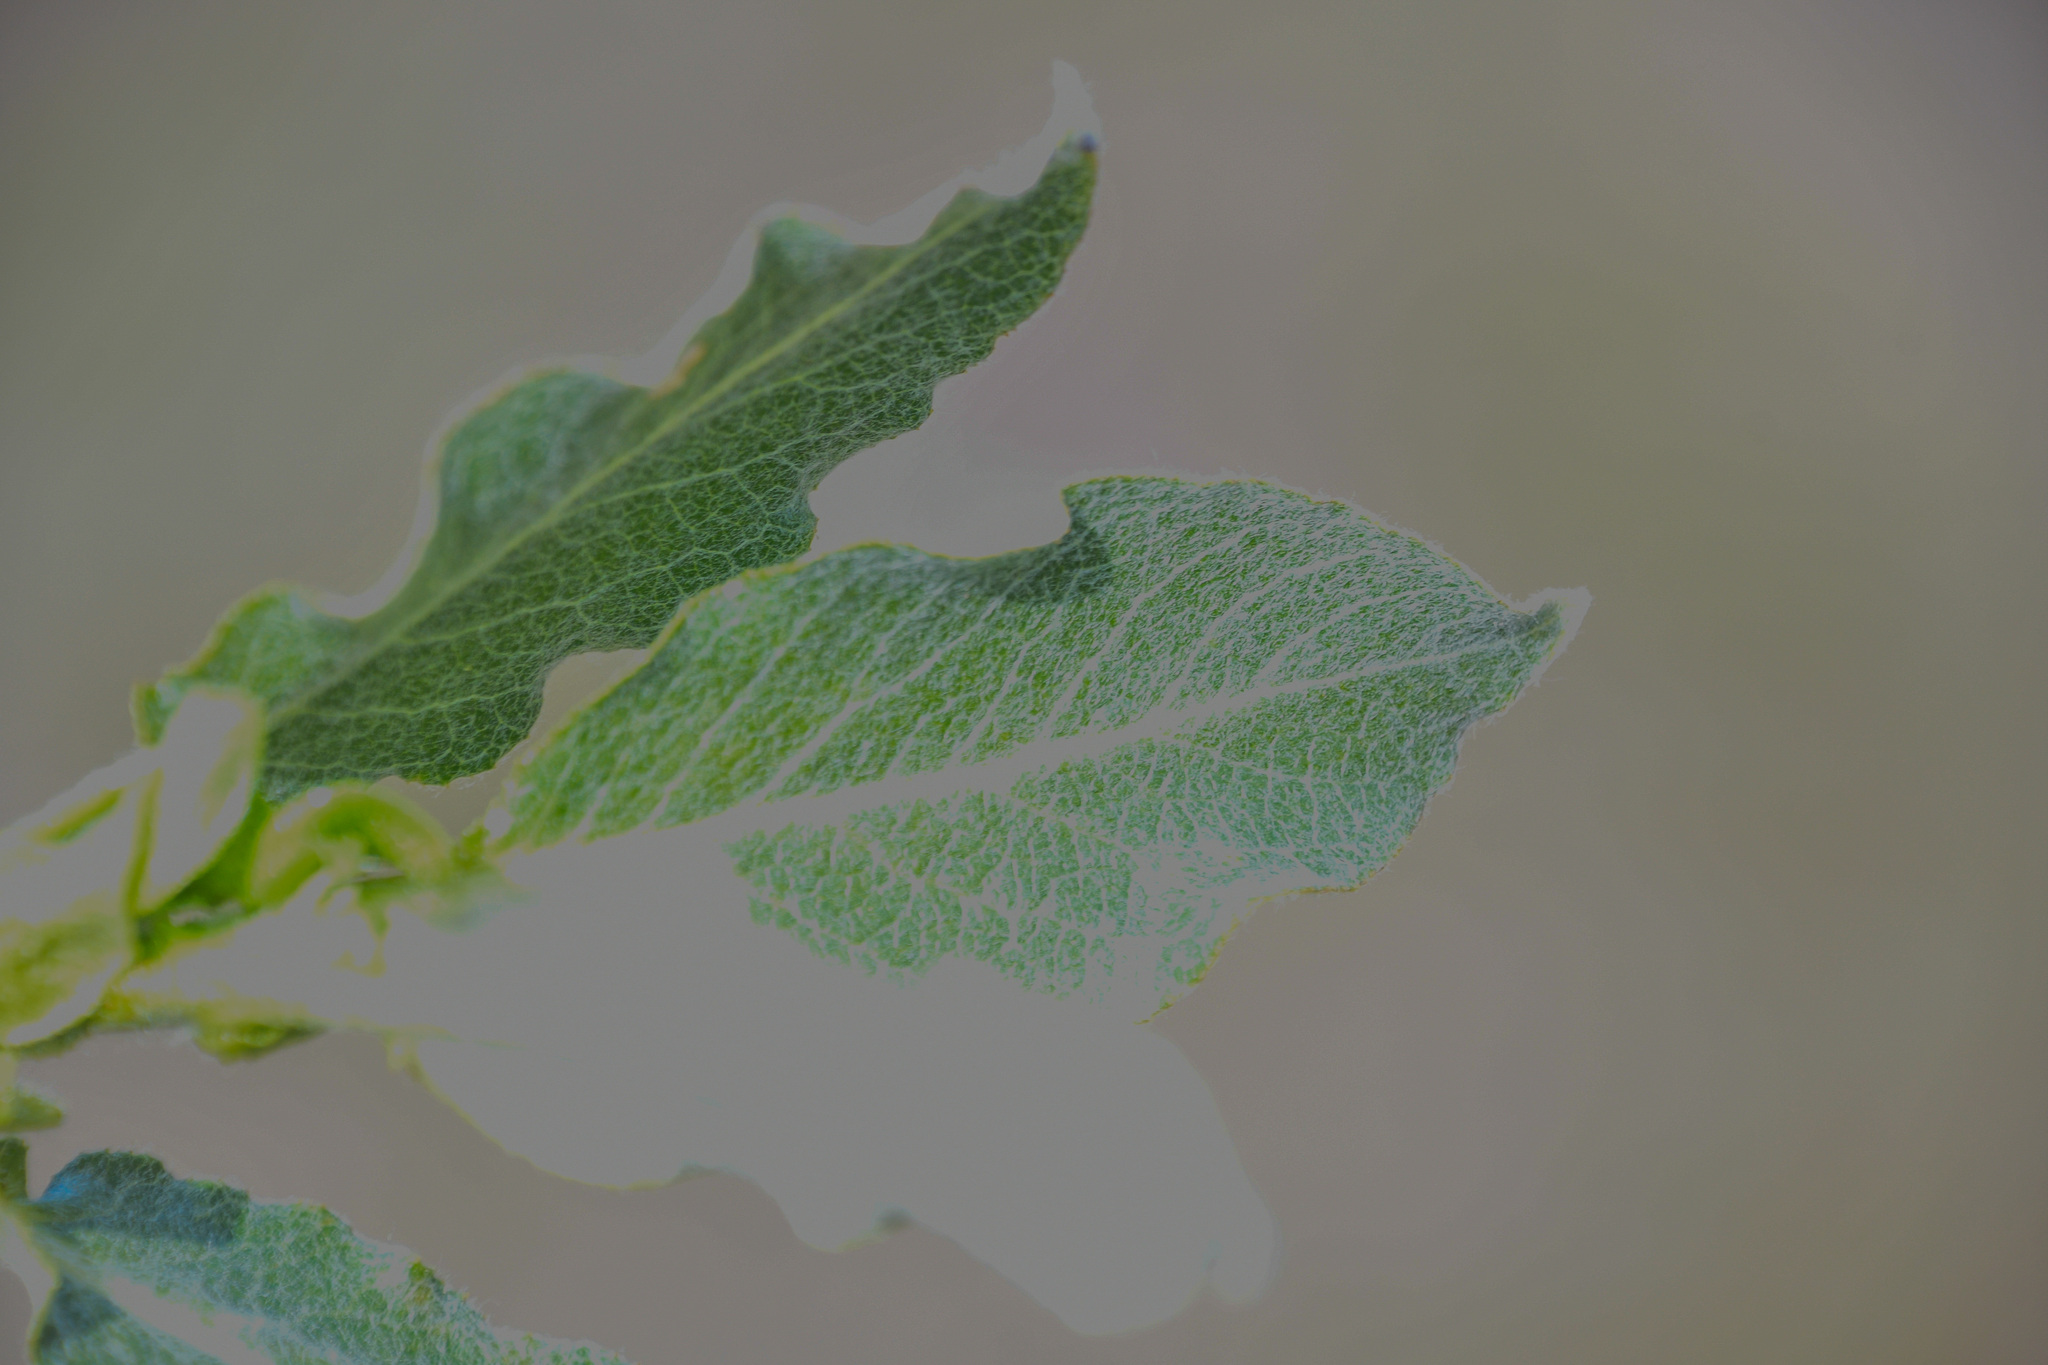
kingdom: Plantae
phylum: Tracheophyta
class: Magnoliopsida
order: Malpighiales
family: Salicaceae
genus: Salix
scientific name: Salix barrattiana
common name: Barratt's willow
